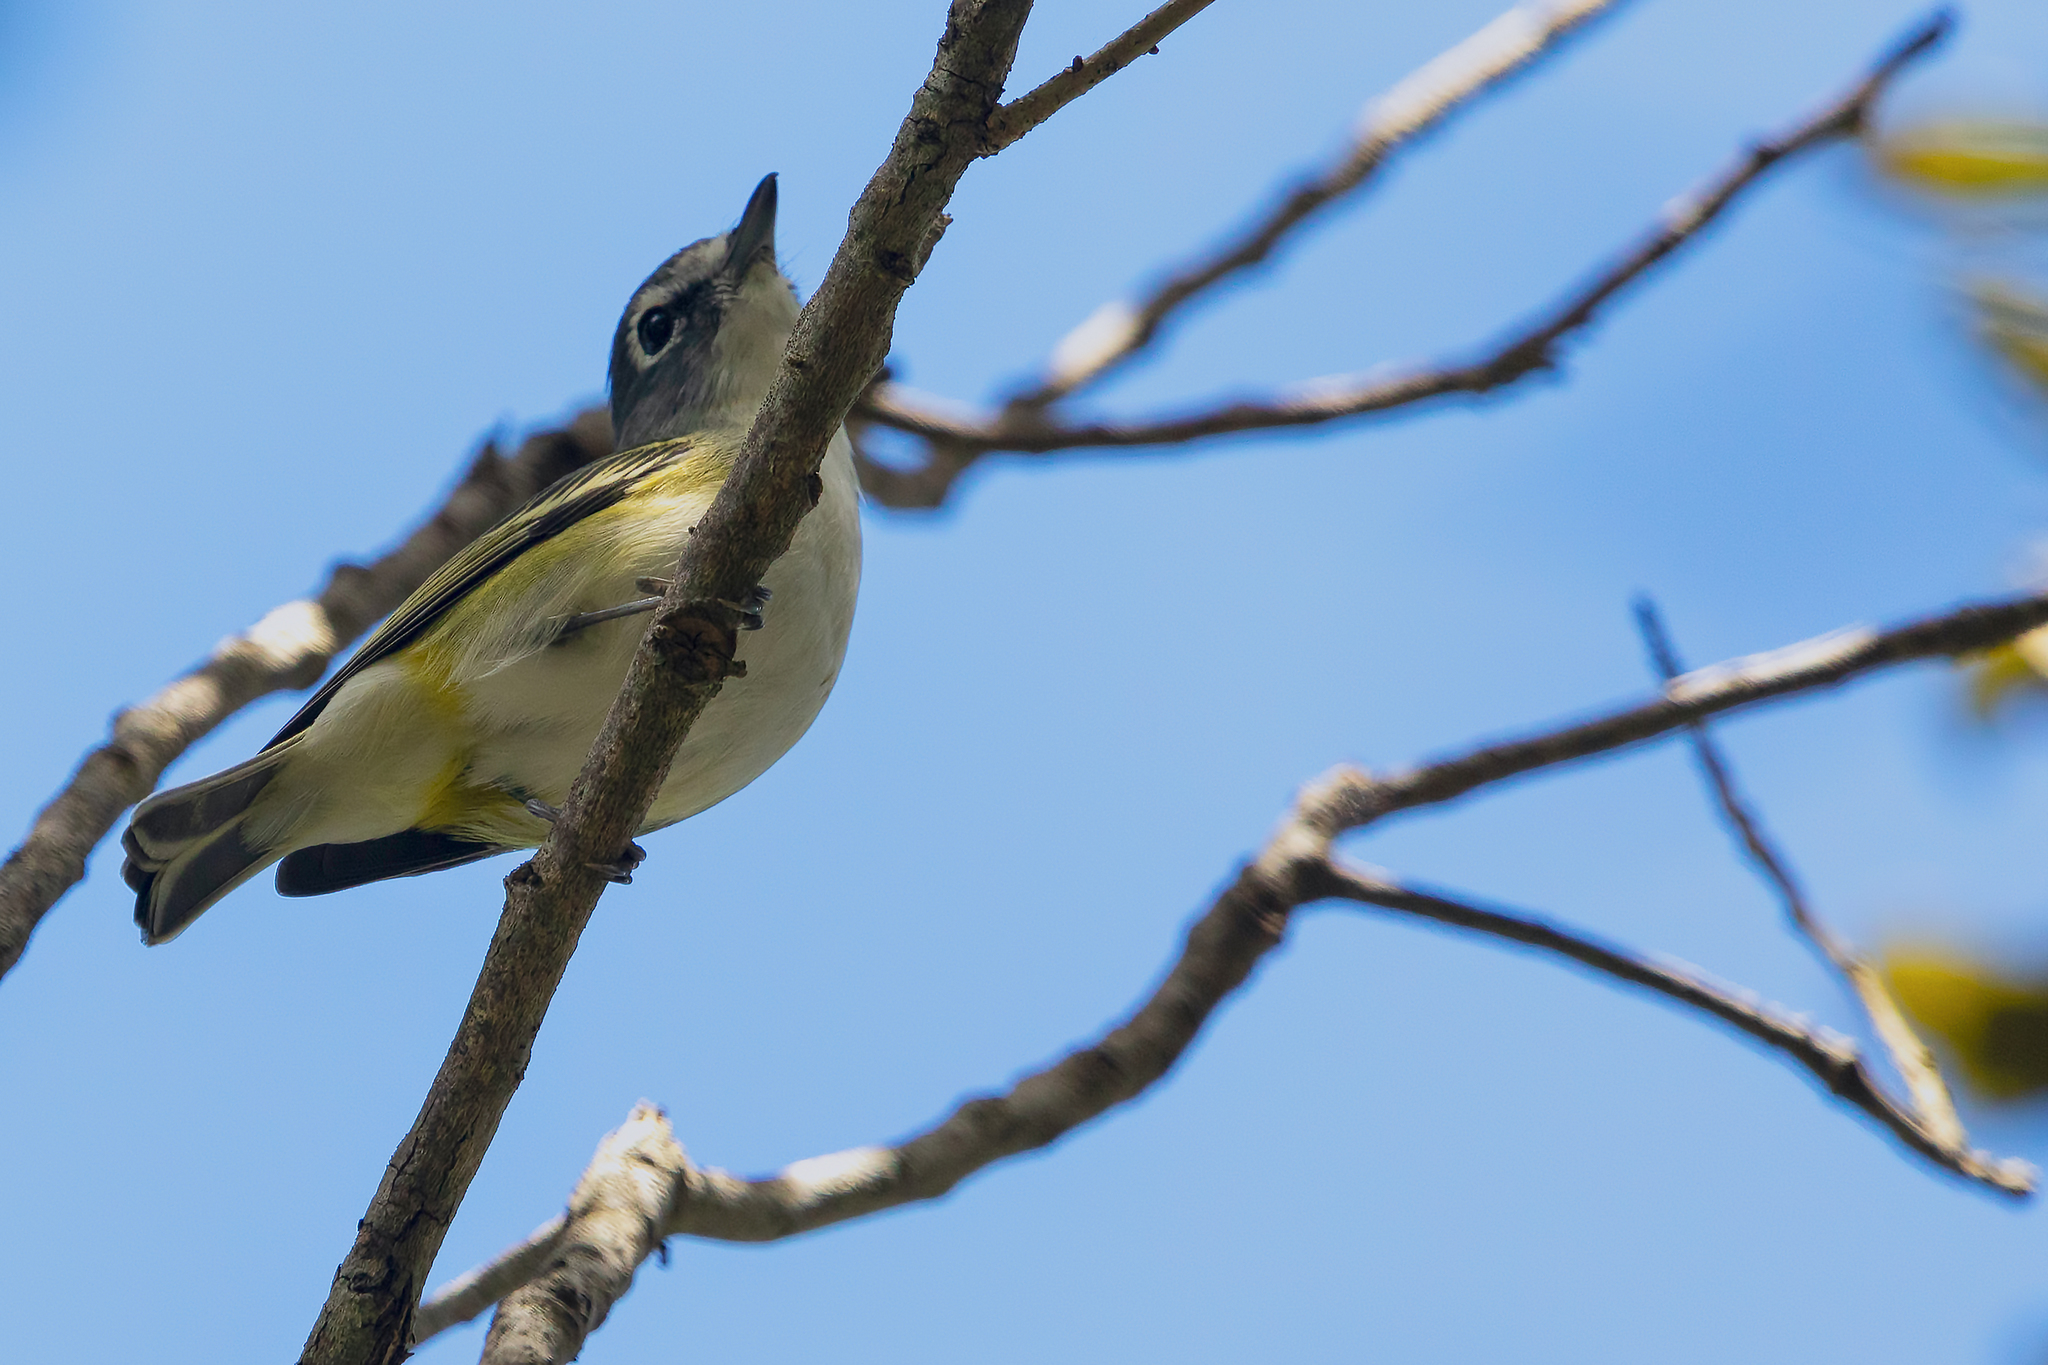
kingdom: Animalia
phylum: Chordata
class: Aves
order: Passeriformes
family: Vireonidae
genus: Vireo
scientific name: Vireo solitarius
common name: Blue-headed vireo
